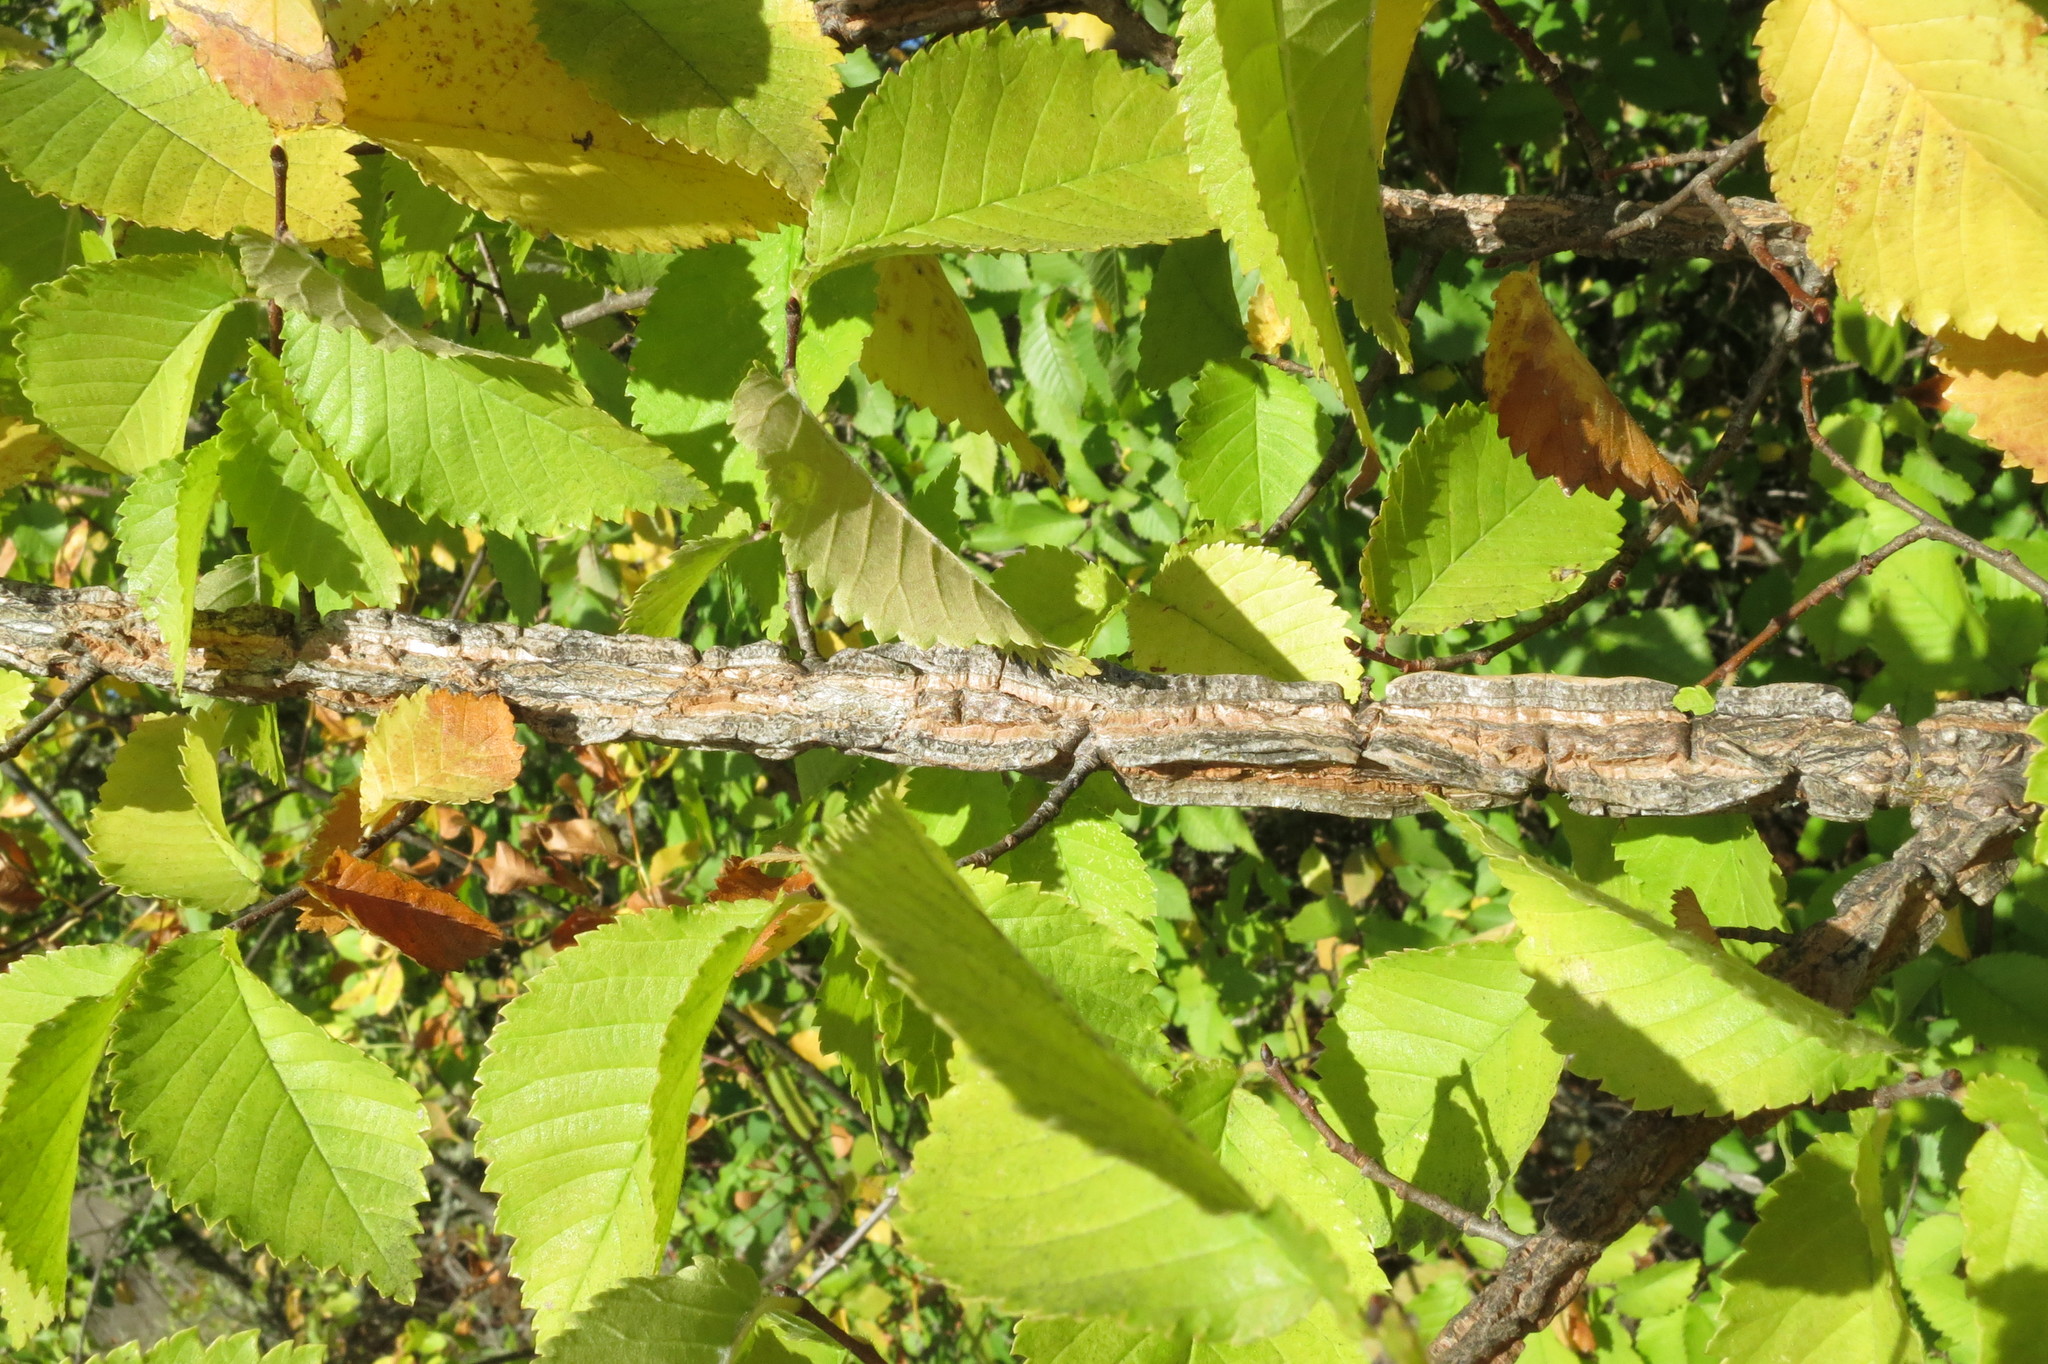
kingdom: Plantae
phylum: Tracheophyta
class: Magnoliopsida
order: Rosales
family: Ulmaceae
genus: Ulmus
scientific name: Ulmus minor
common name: Small-leaved elm
